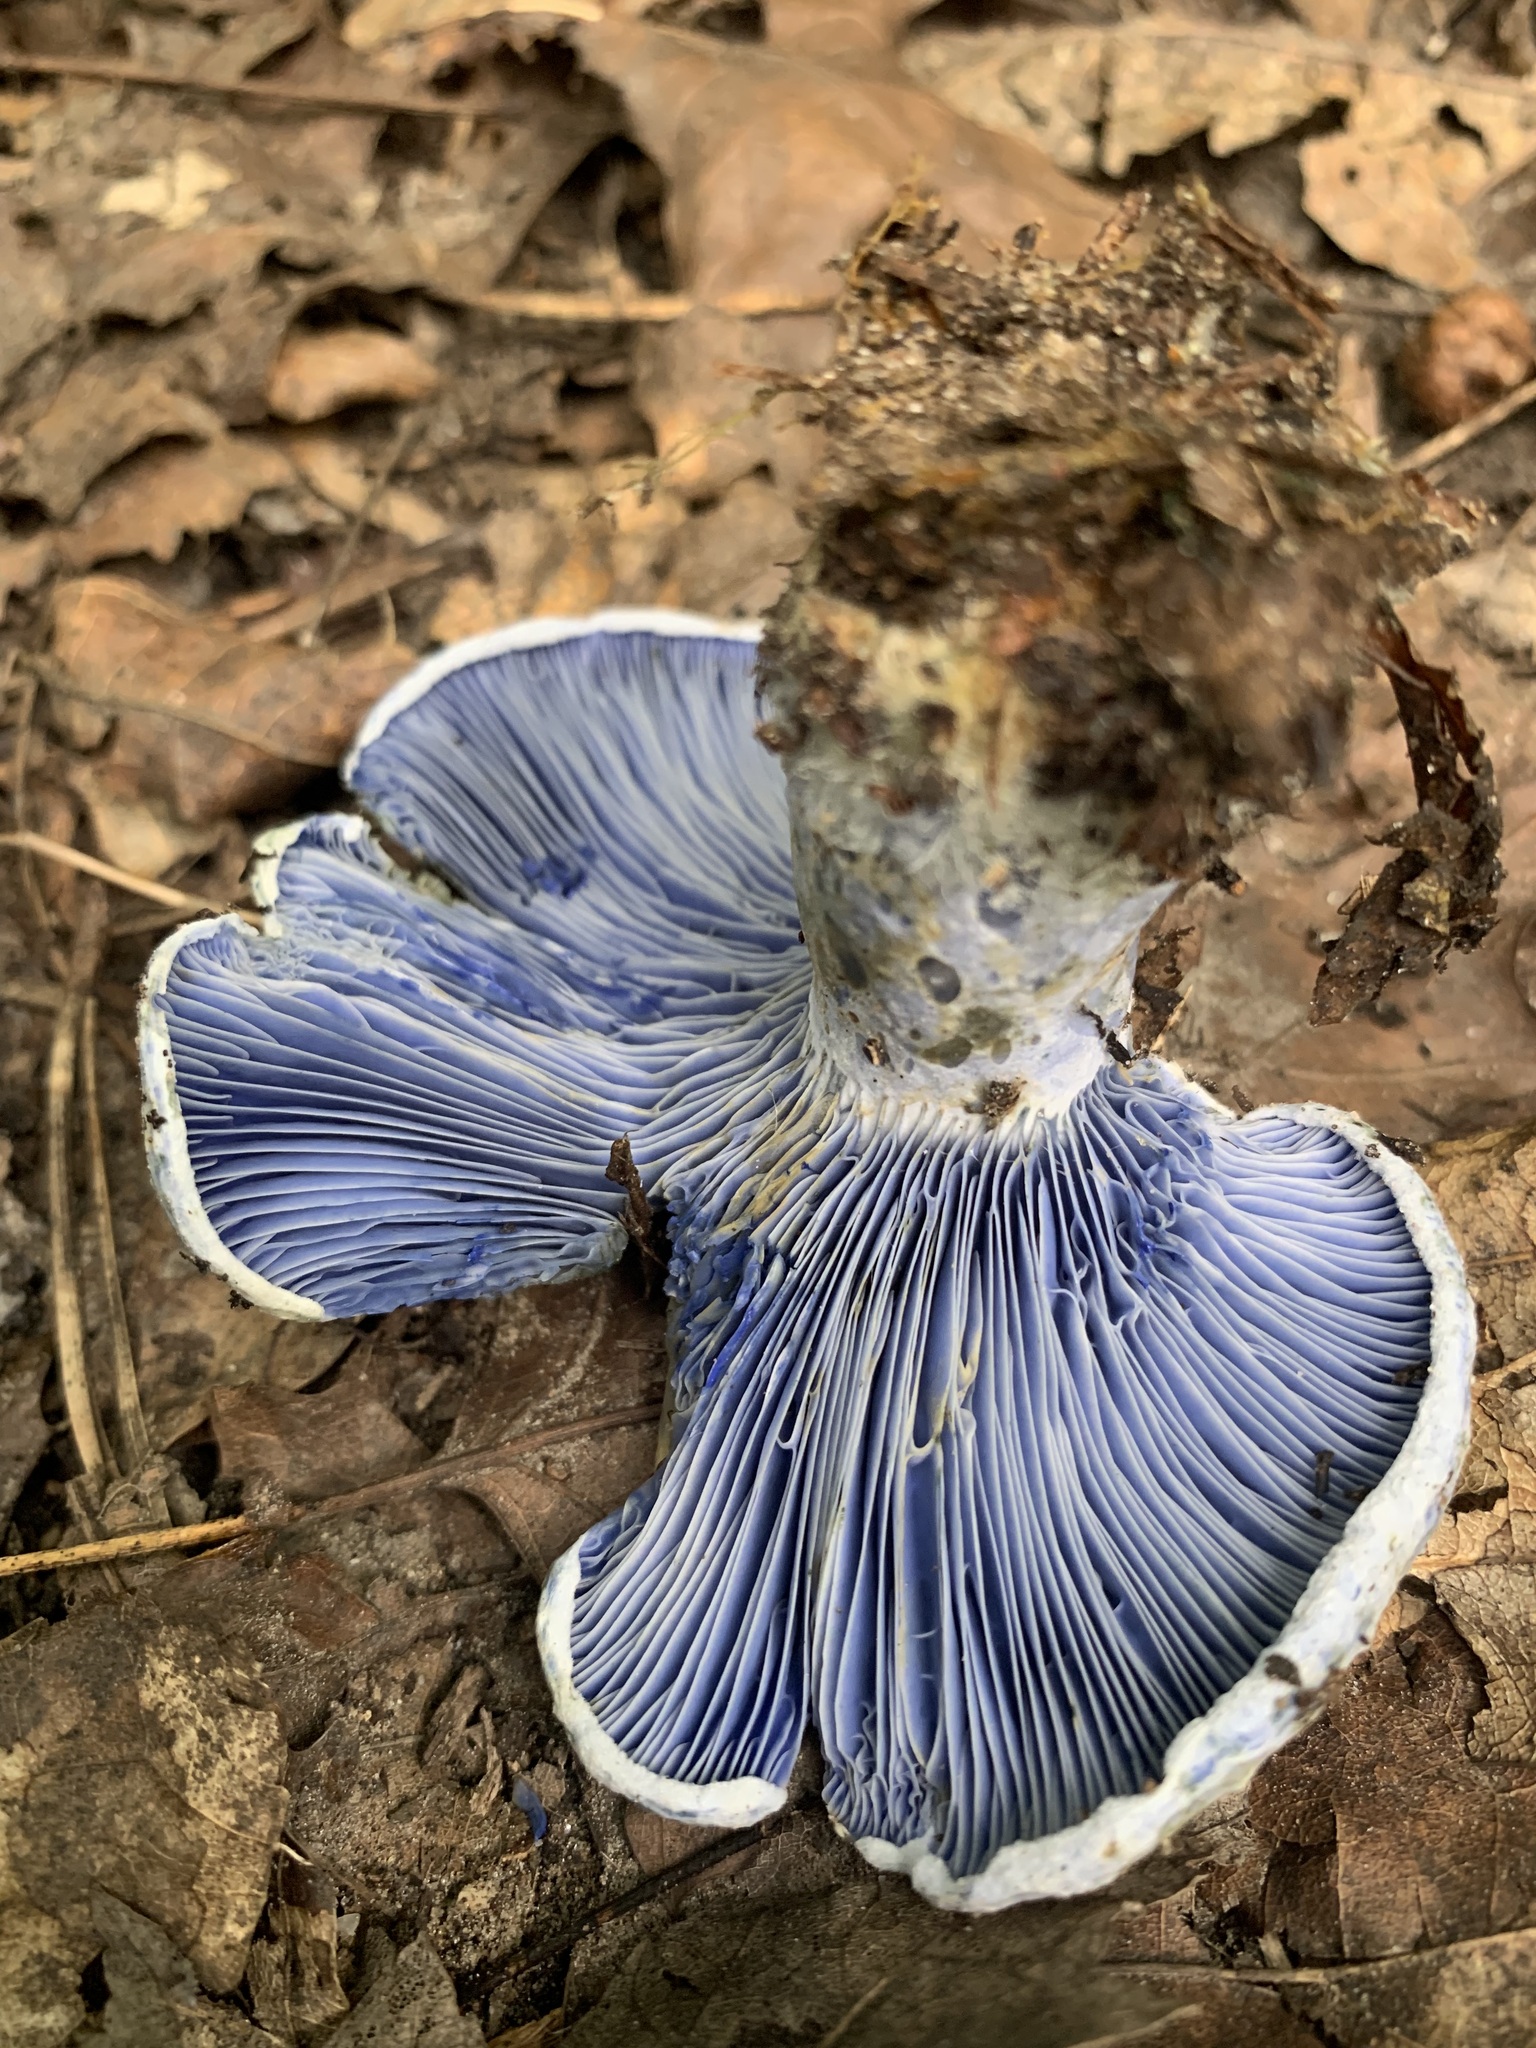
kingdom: Fungi
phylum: Basidiomycota
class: Agaricomycetes
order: Russulales
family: Russulaceae
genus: Lactarius
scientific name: Lactarius indigo
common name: Indigo milk cap
